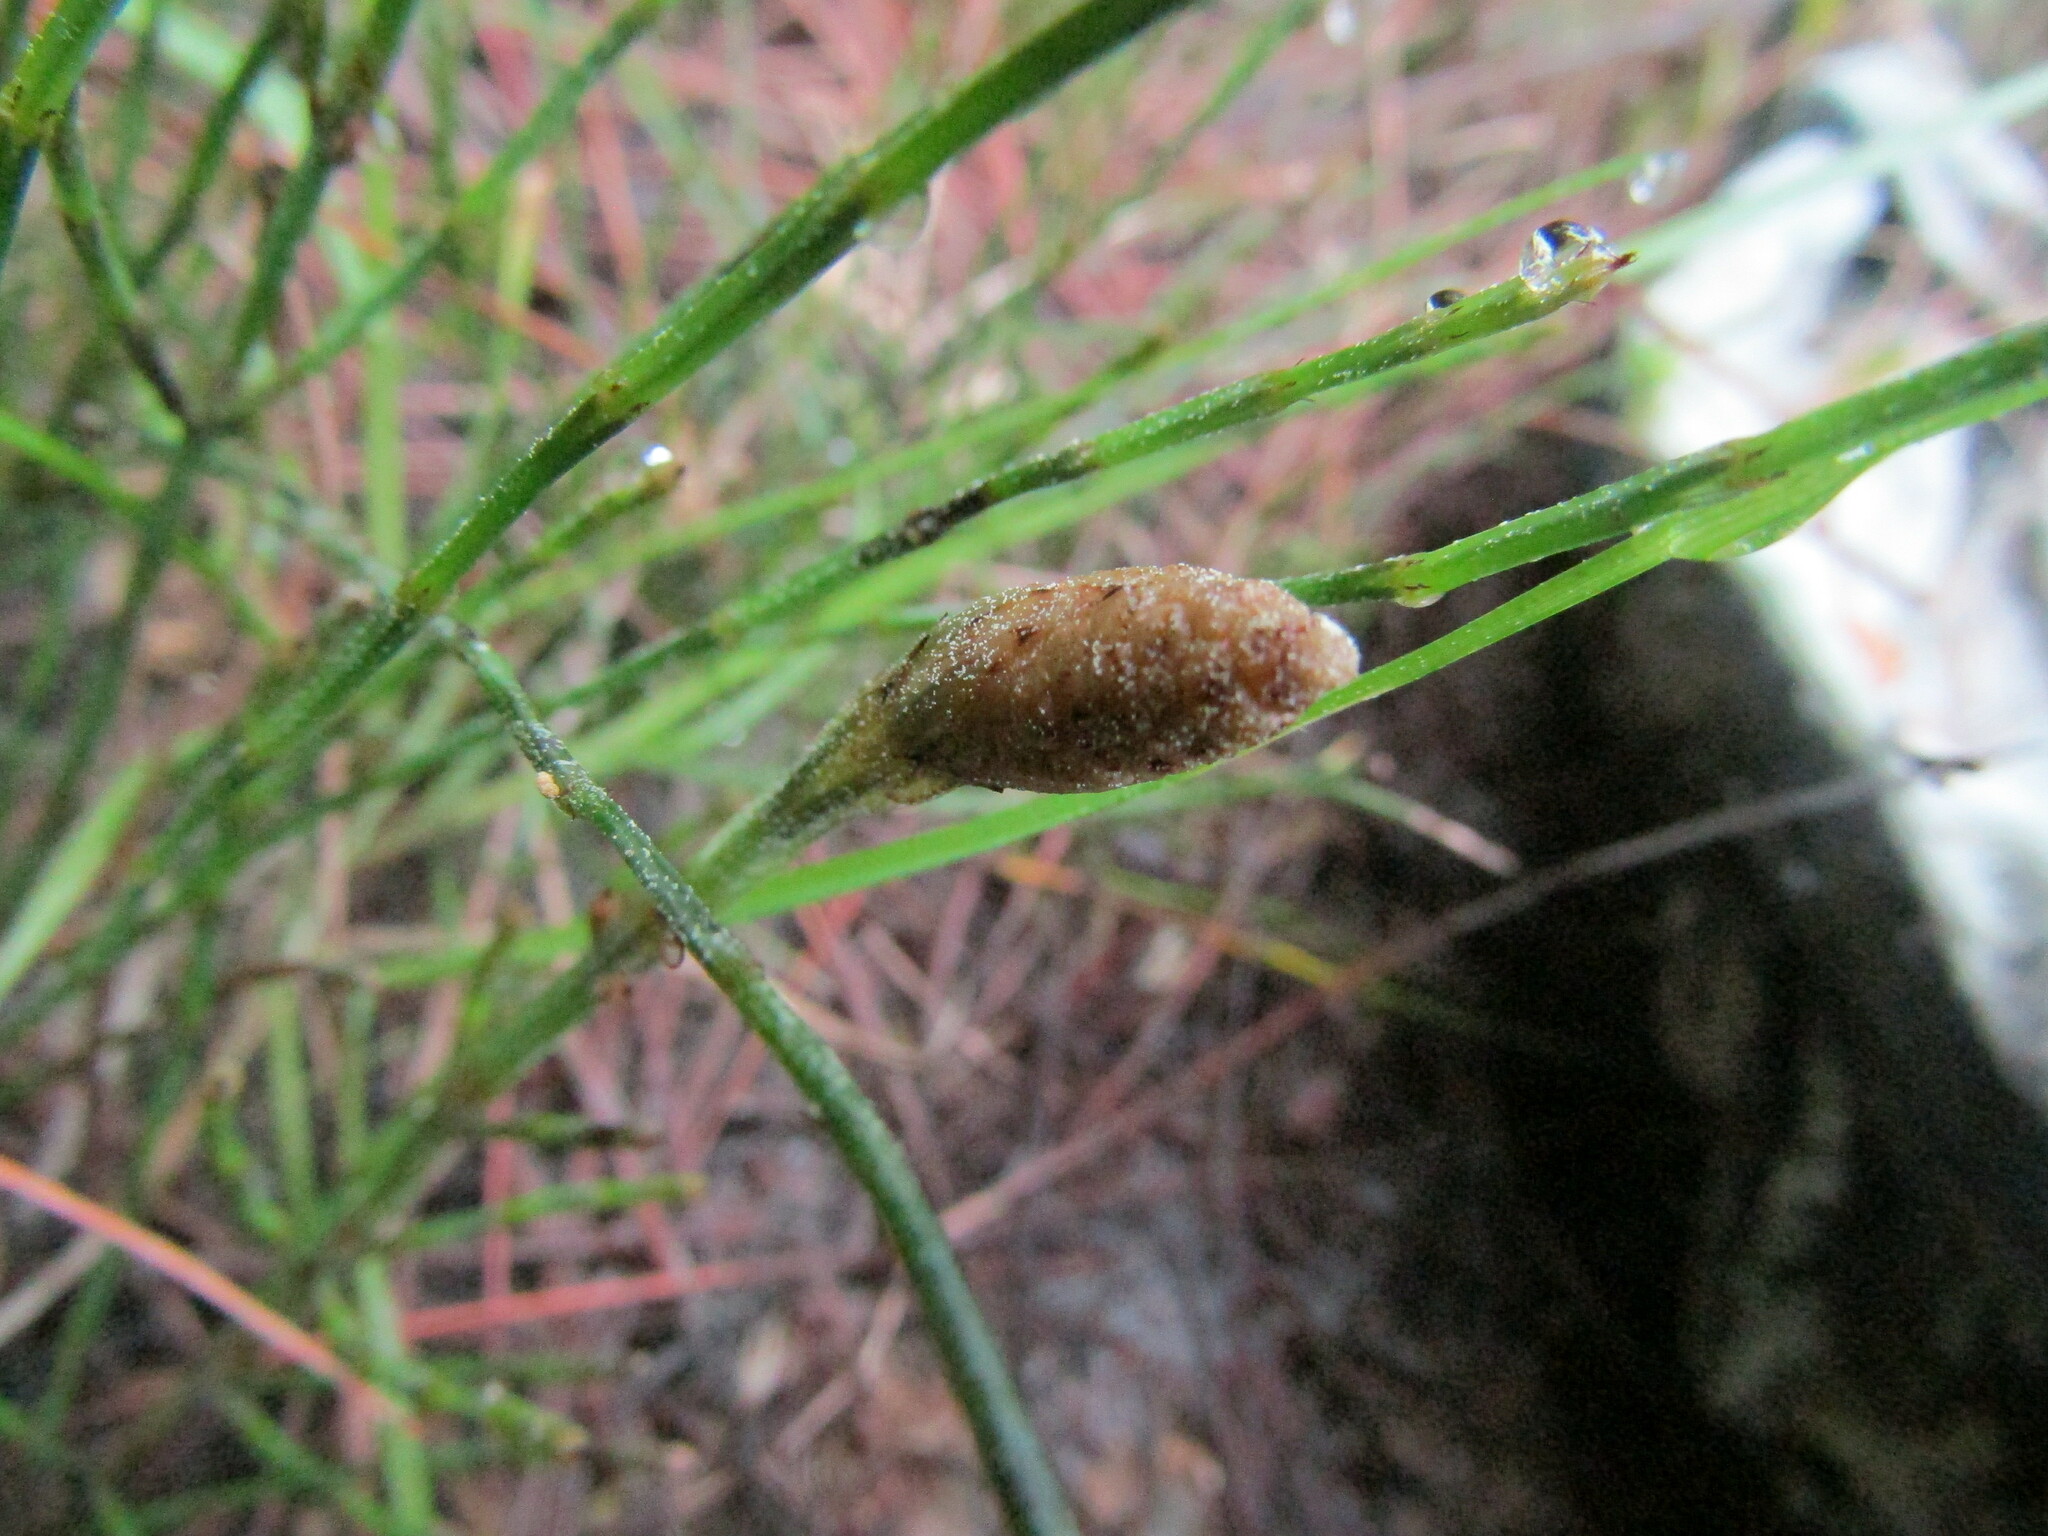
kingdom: Plantae
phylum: Tracheophyta
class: Polypodiopsida
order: Equisetales
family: Equisetaceae
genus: Equisetum
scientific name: Equisetum bogotense
